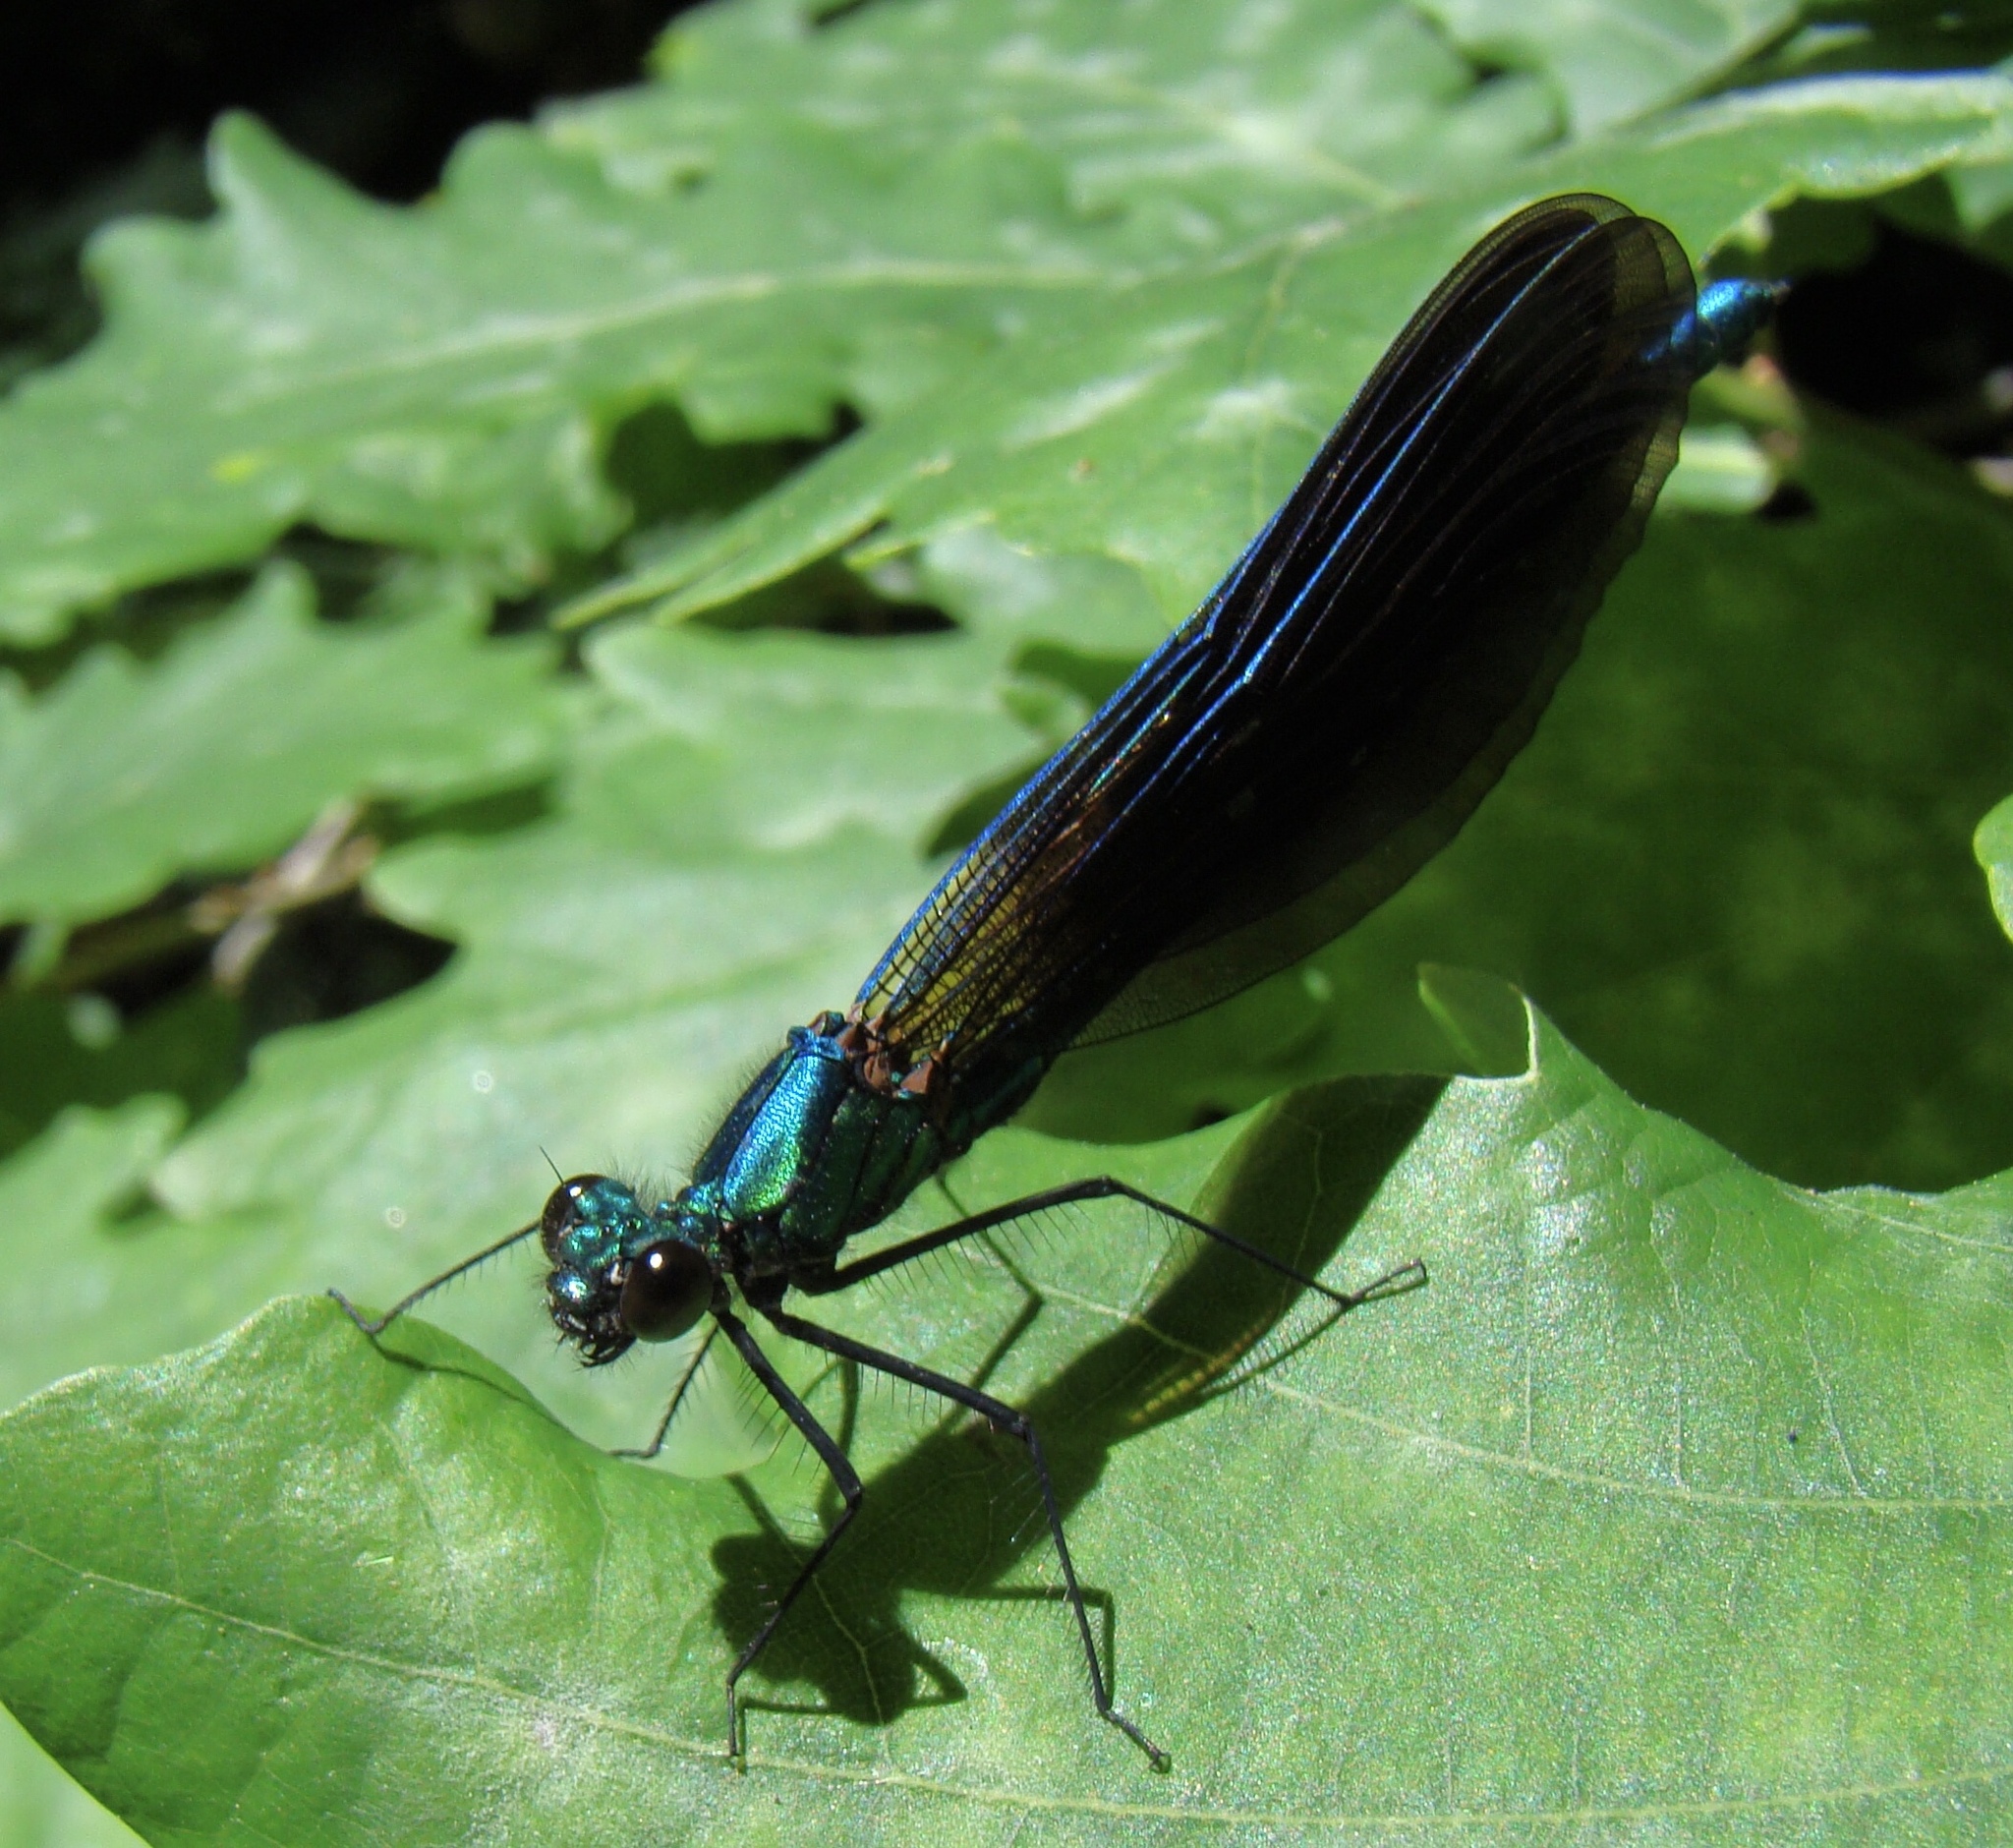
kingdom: Animalia
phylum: Arthropoda
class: Insecta
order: Odonata
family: Calopterygidae
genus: Calopteryx
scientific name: Calopteryx virgo
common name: Beautiful demoiselle
